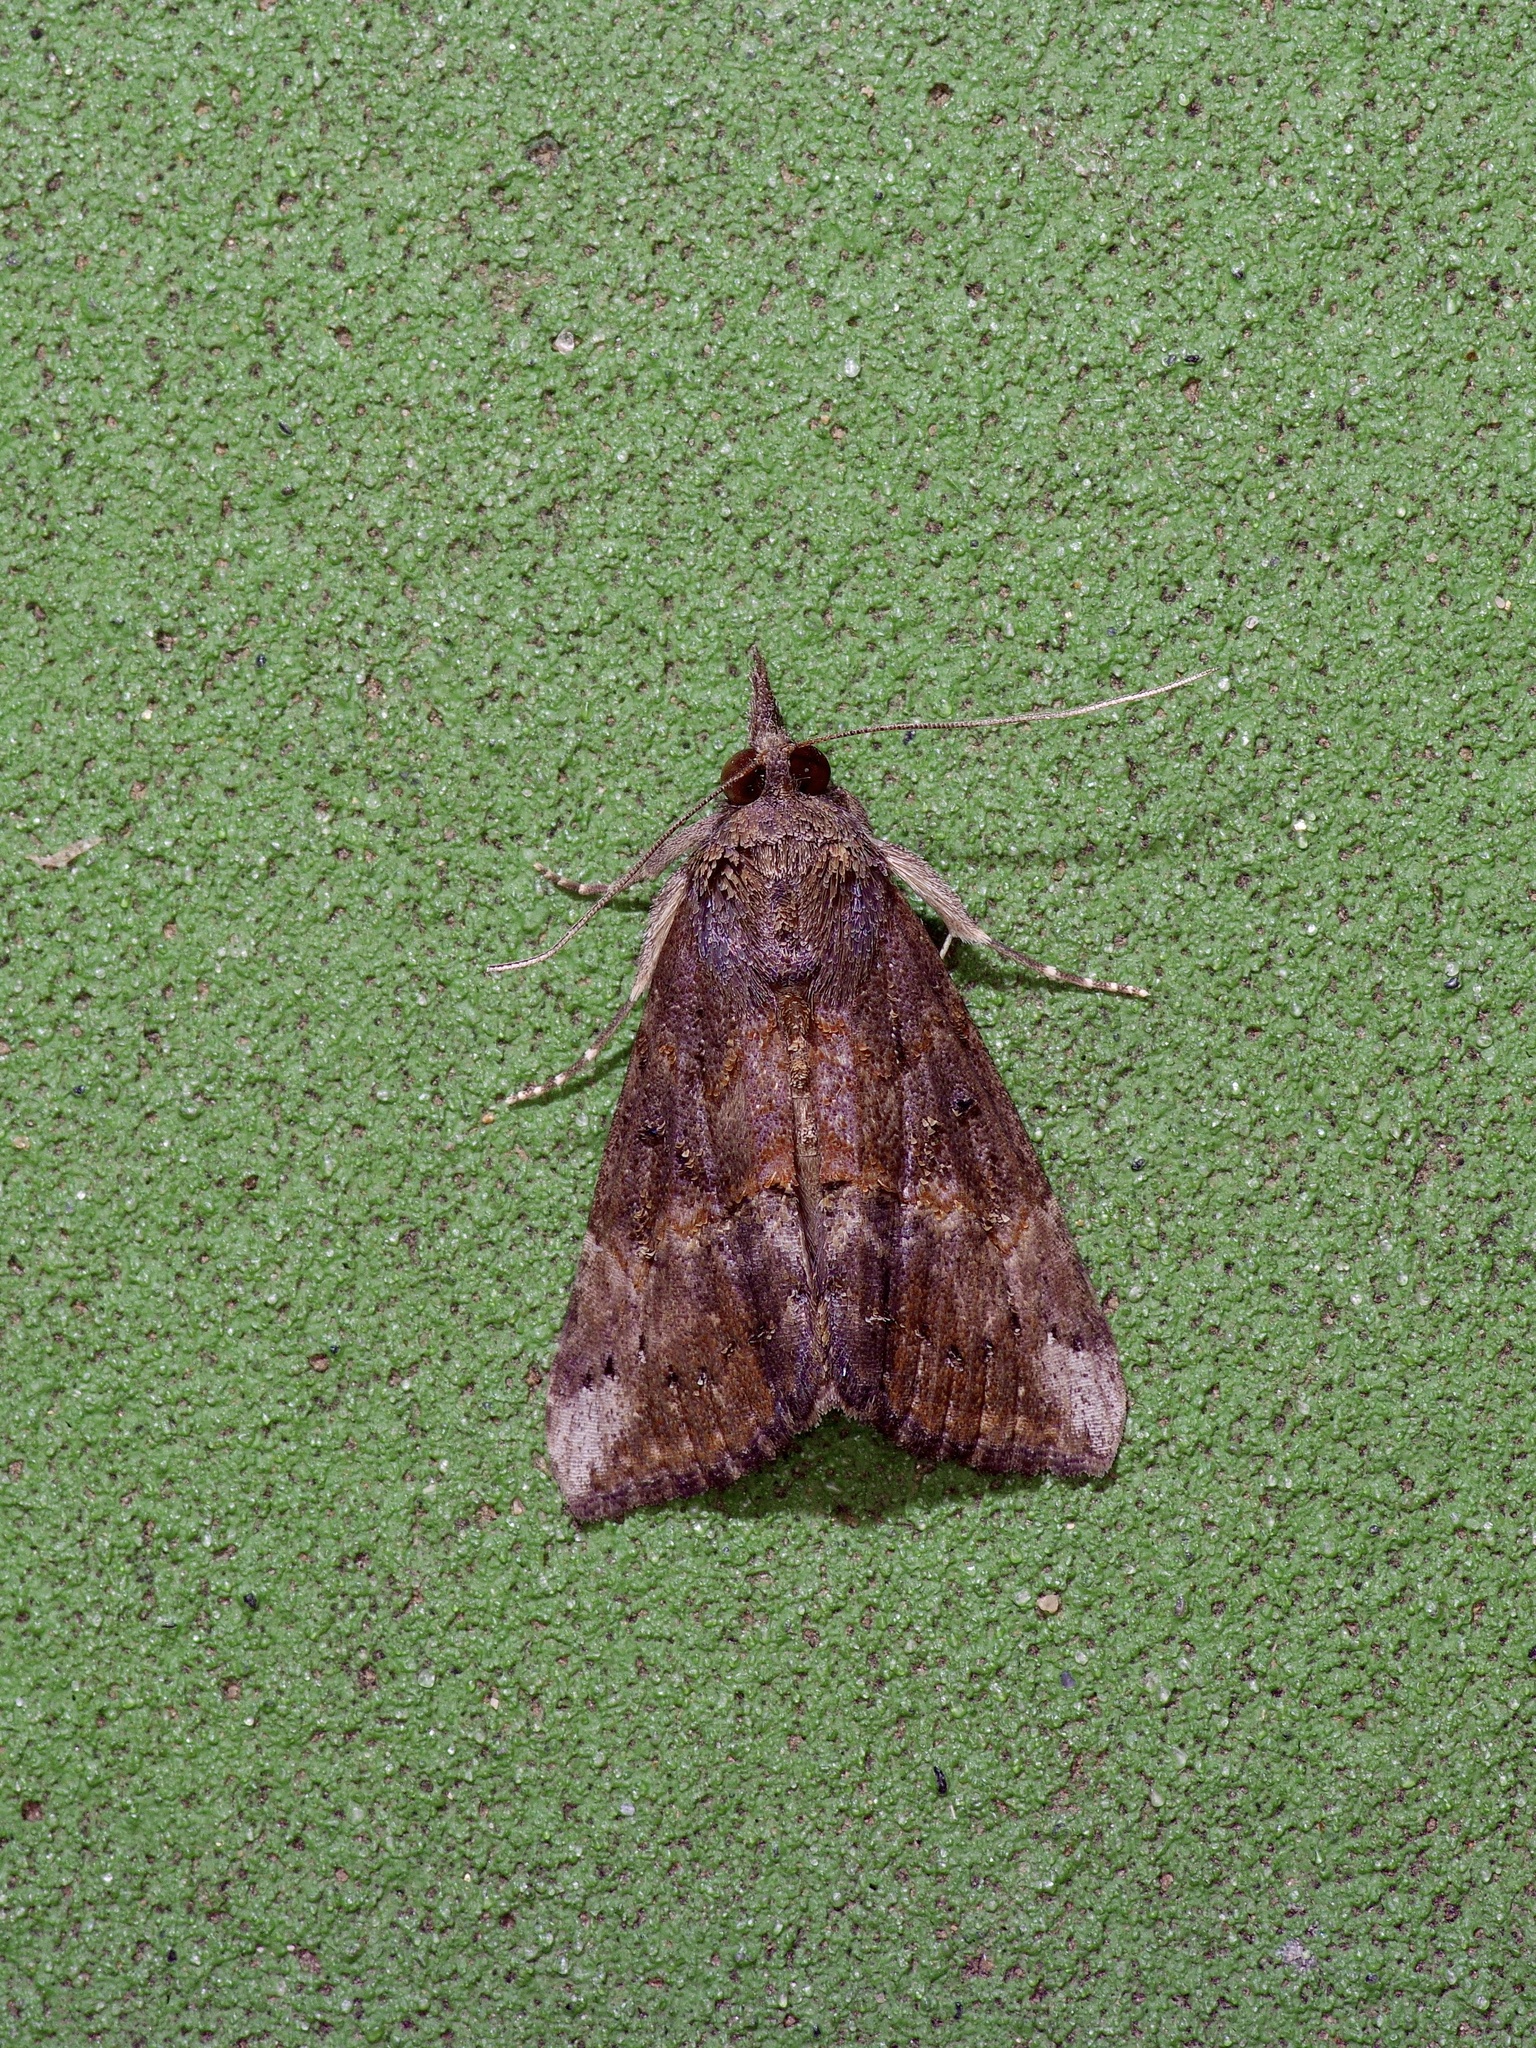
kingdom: Animalia
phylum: Arthropoda
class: Insecta
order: Lepidoptera
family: Erebidae
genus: Hypena
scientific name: Hypena scabra
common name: Green cloverworm
